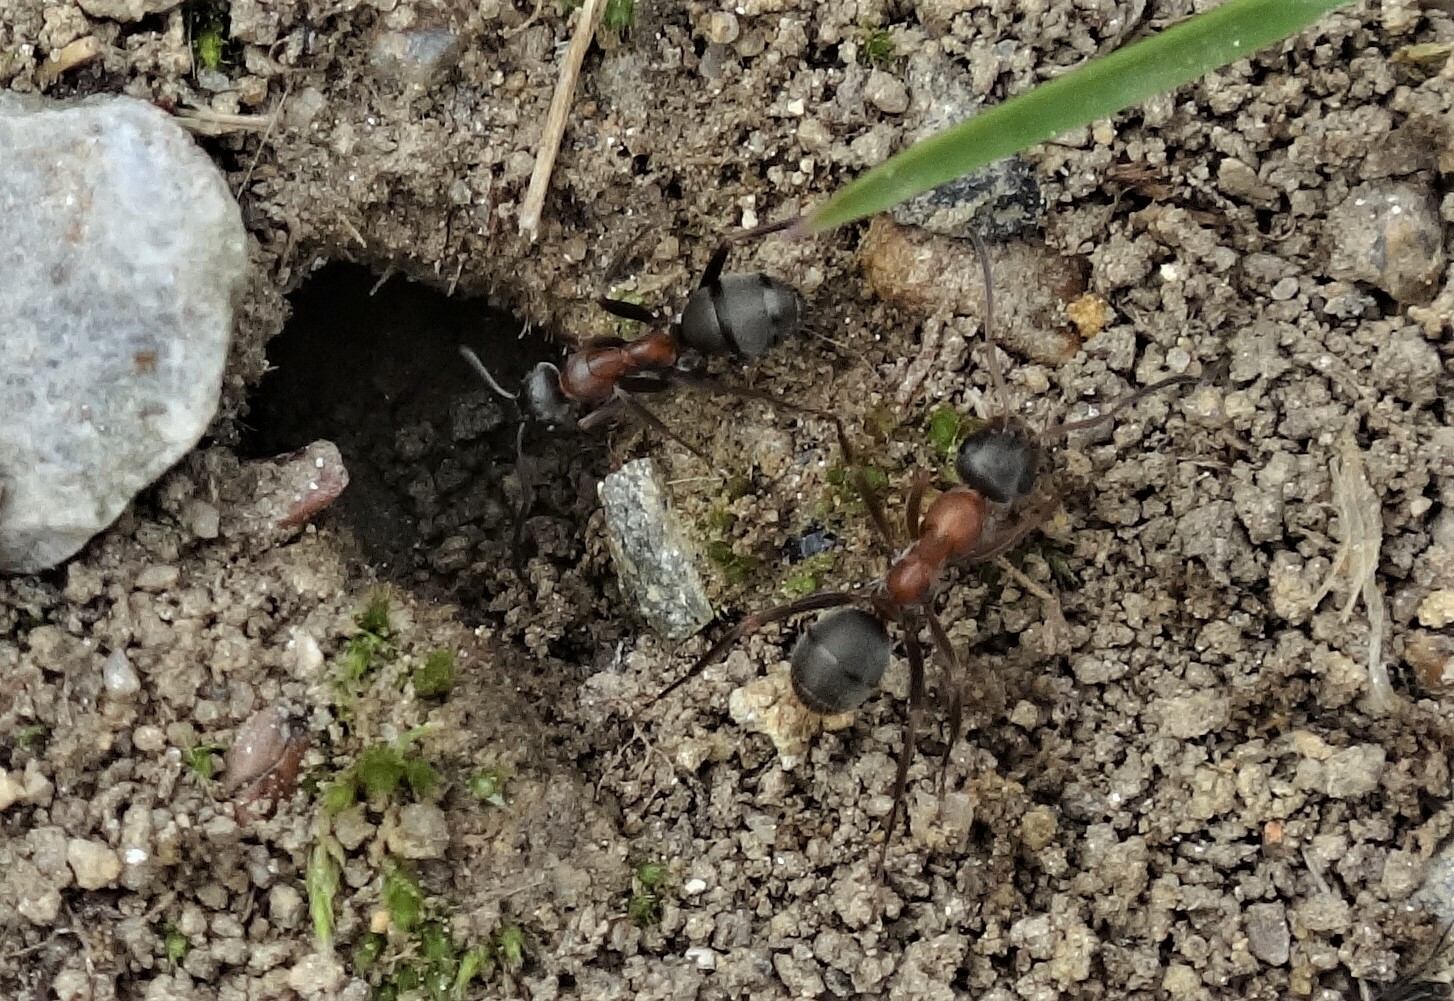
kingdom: Animalia
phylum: Arthropoda
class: Insecta
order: Hymenoptera
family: Formicidae
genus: Formica
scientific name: Formica
